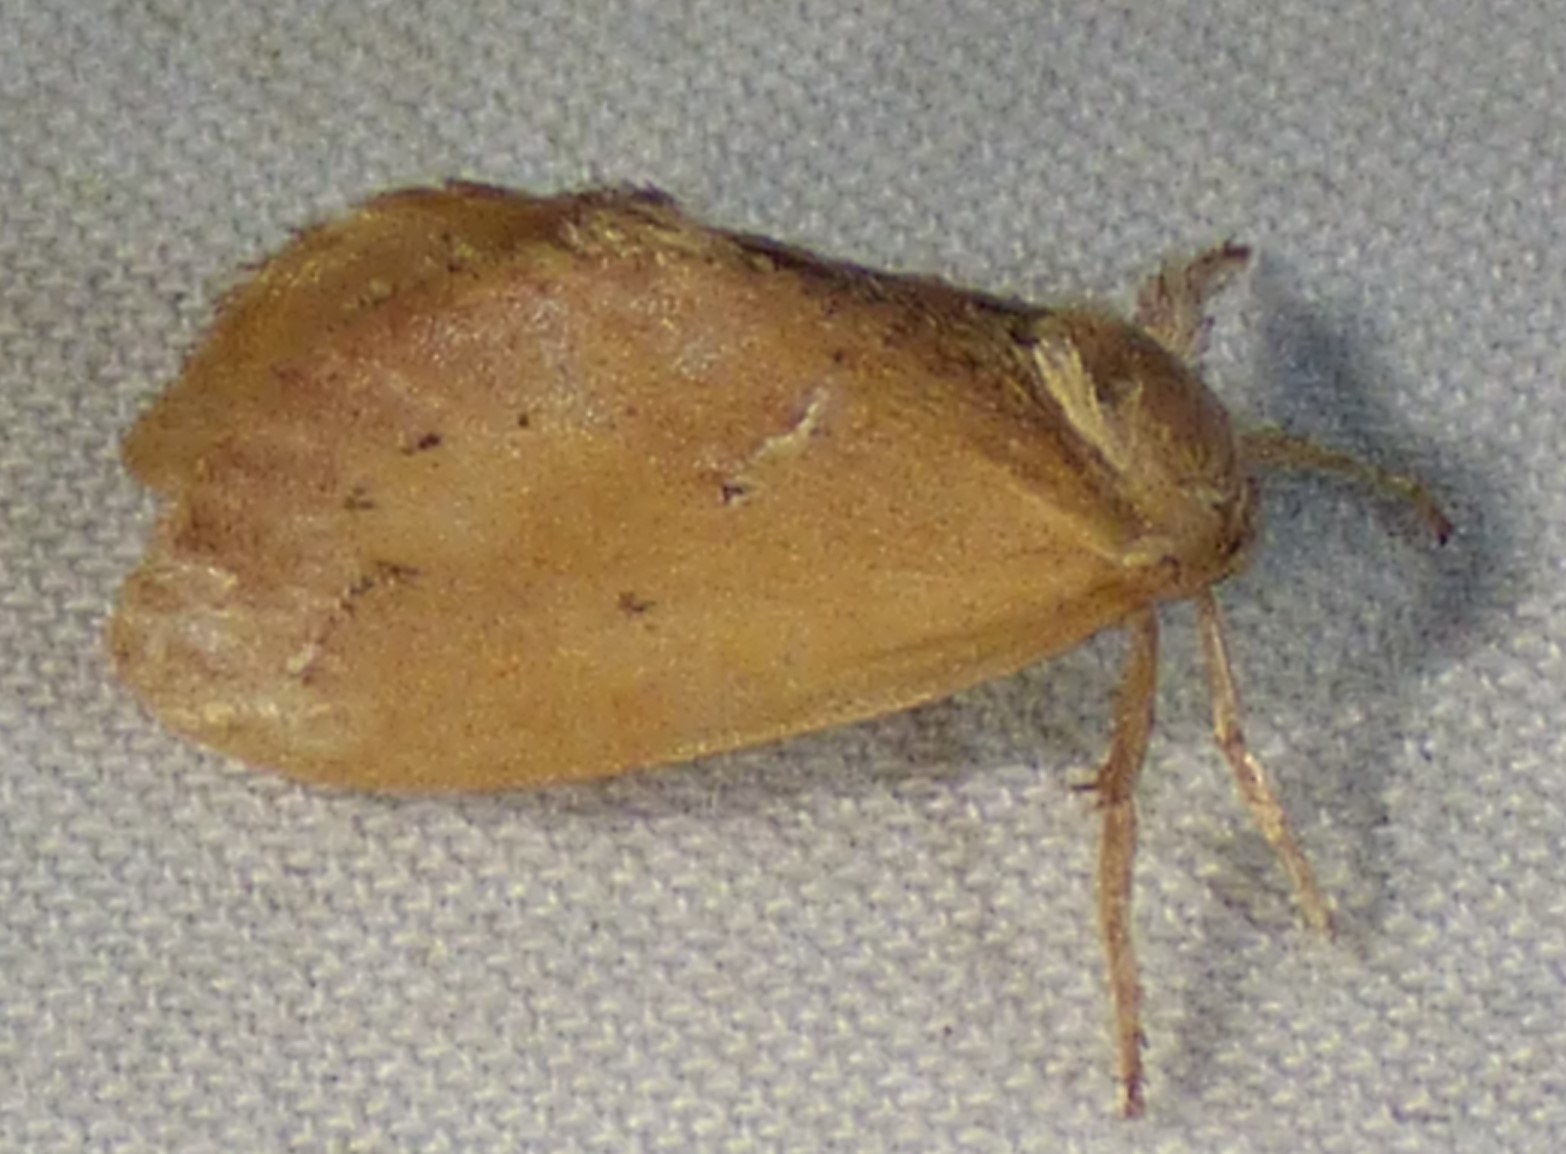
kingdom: Animalia
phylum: Arthropoda
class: Insecta
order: Lepidoptera
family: Limacodidae
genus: Adoneta
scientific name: Adoneta bicaudata
